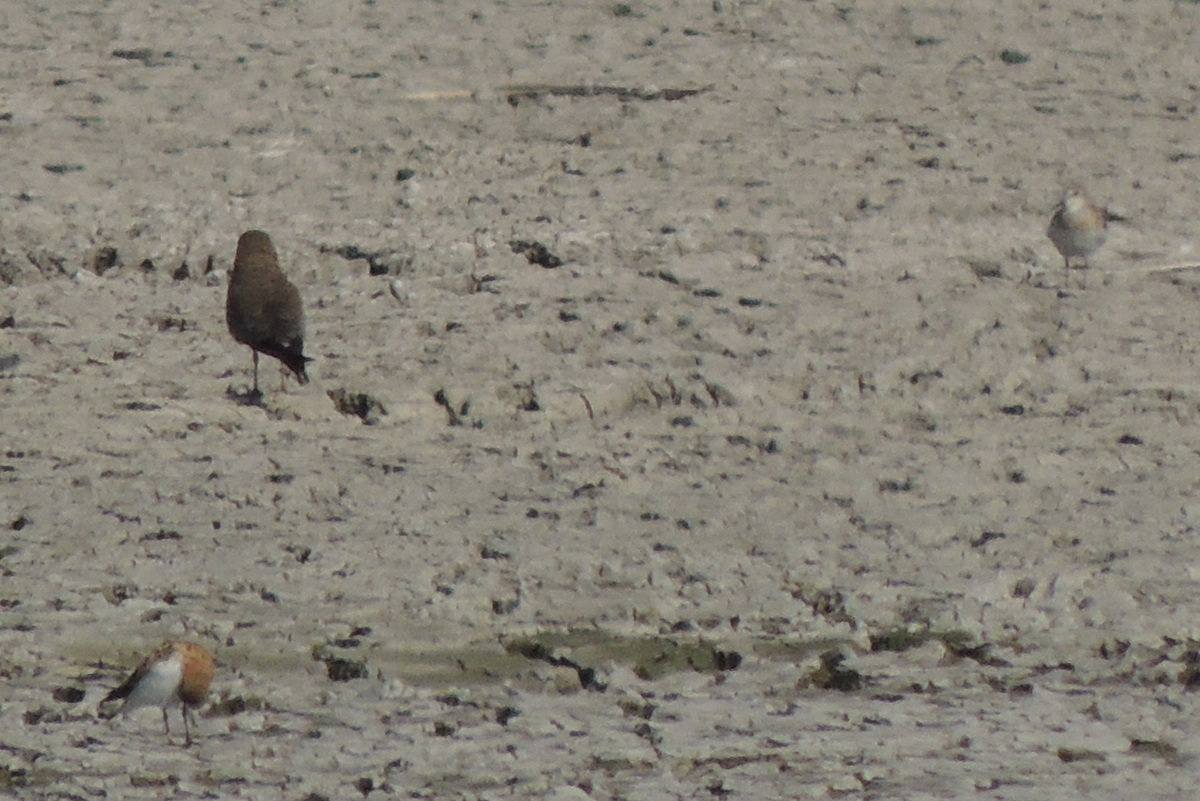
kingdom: Animalia
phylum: Chordata
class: Aves
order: Charadriiformes
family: Glareolidae
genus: Glareola
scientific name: Glareola pratincola
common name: Collared pratincole
